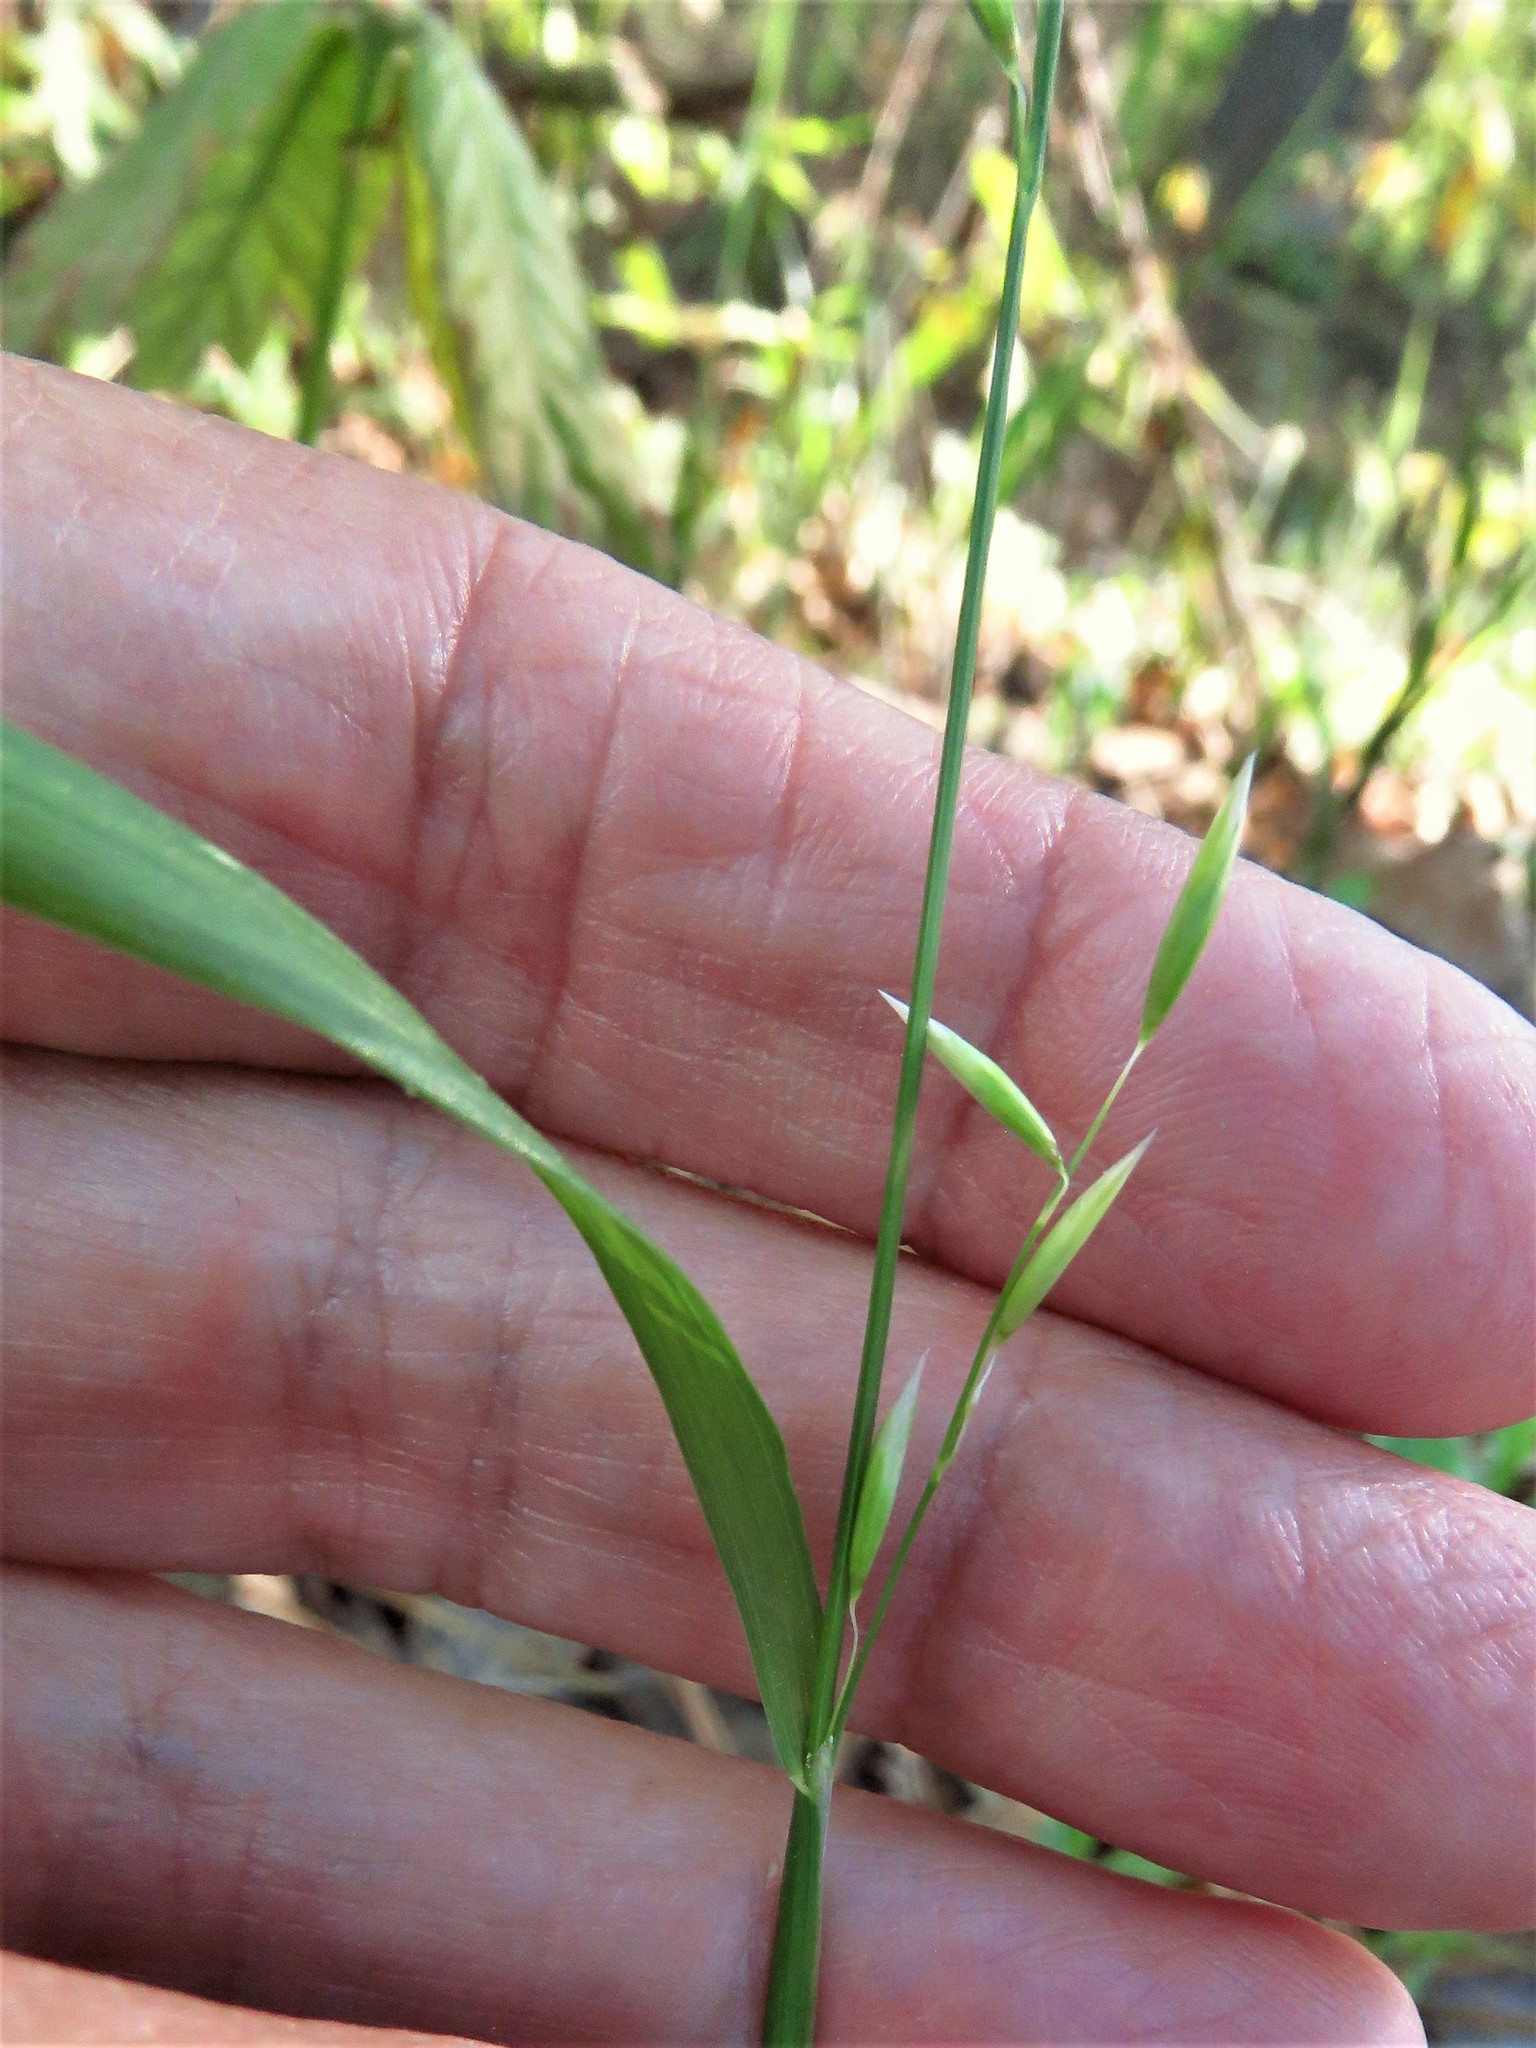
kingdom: Plantae
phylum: Tracheophyta
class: Liliopsida
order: Poales
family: Poaceae
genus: Melica
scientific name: Melica mutica
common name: Two-flower melic
